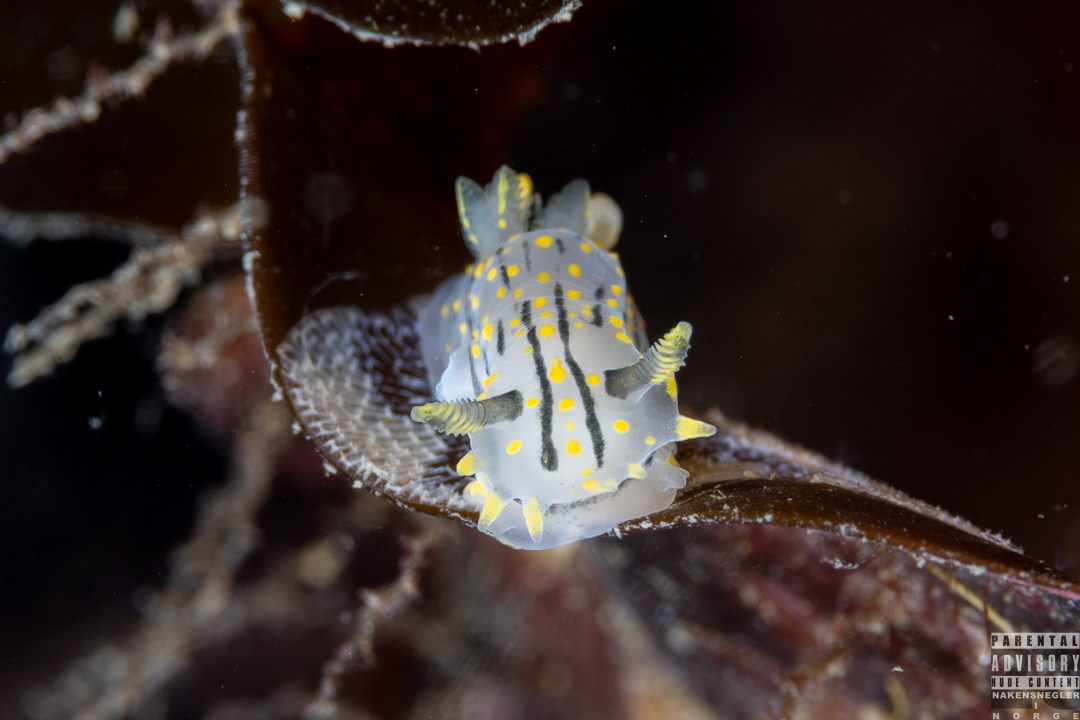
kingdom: Animalia
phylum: Mollusca
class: Gastropoda
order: Nudibranchia
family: Polyceridae
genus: Polycera
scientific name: Polycera quadrilineata
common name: Four-striped polycera
